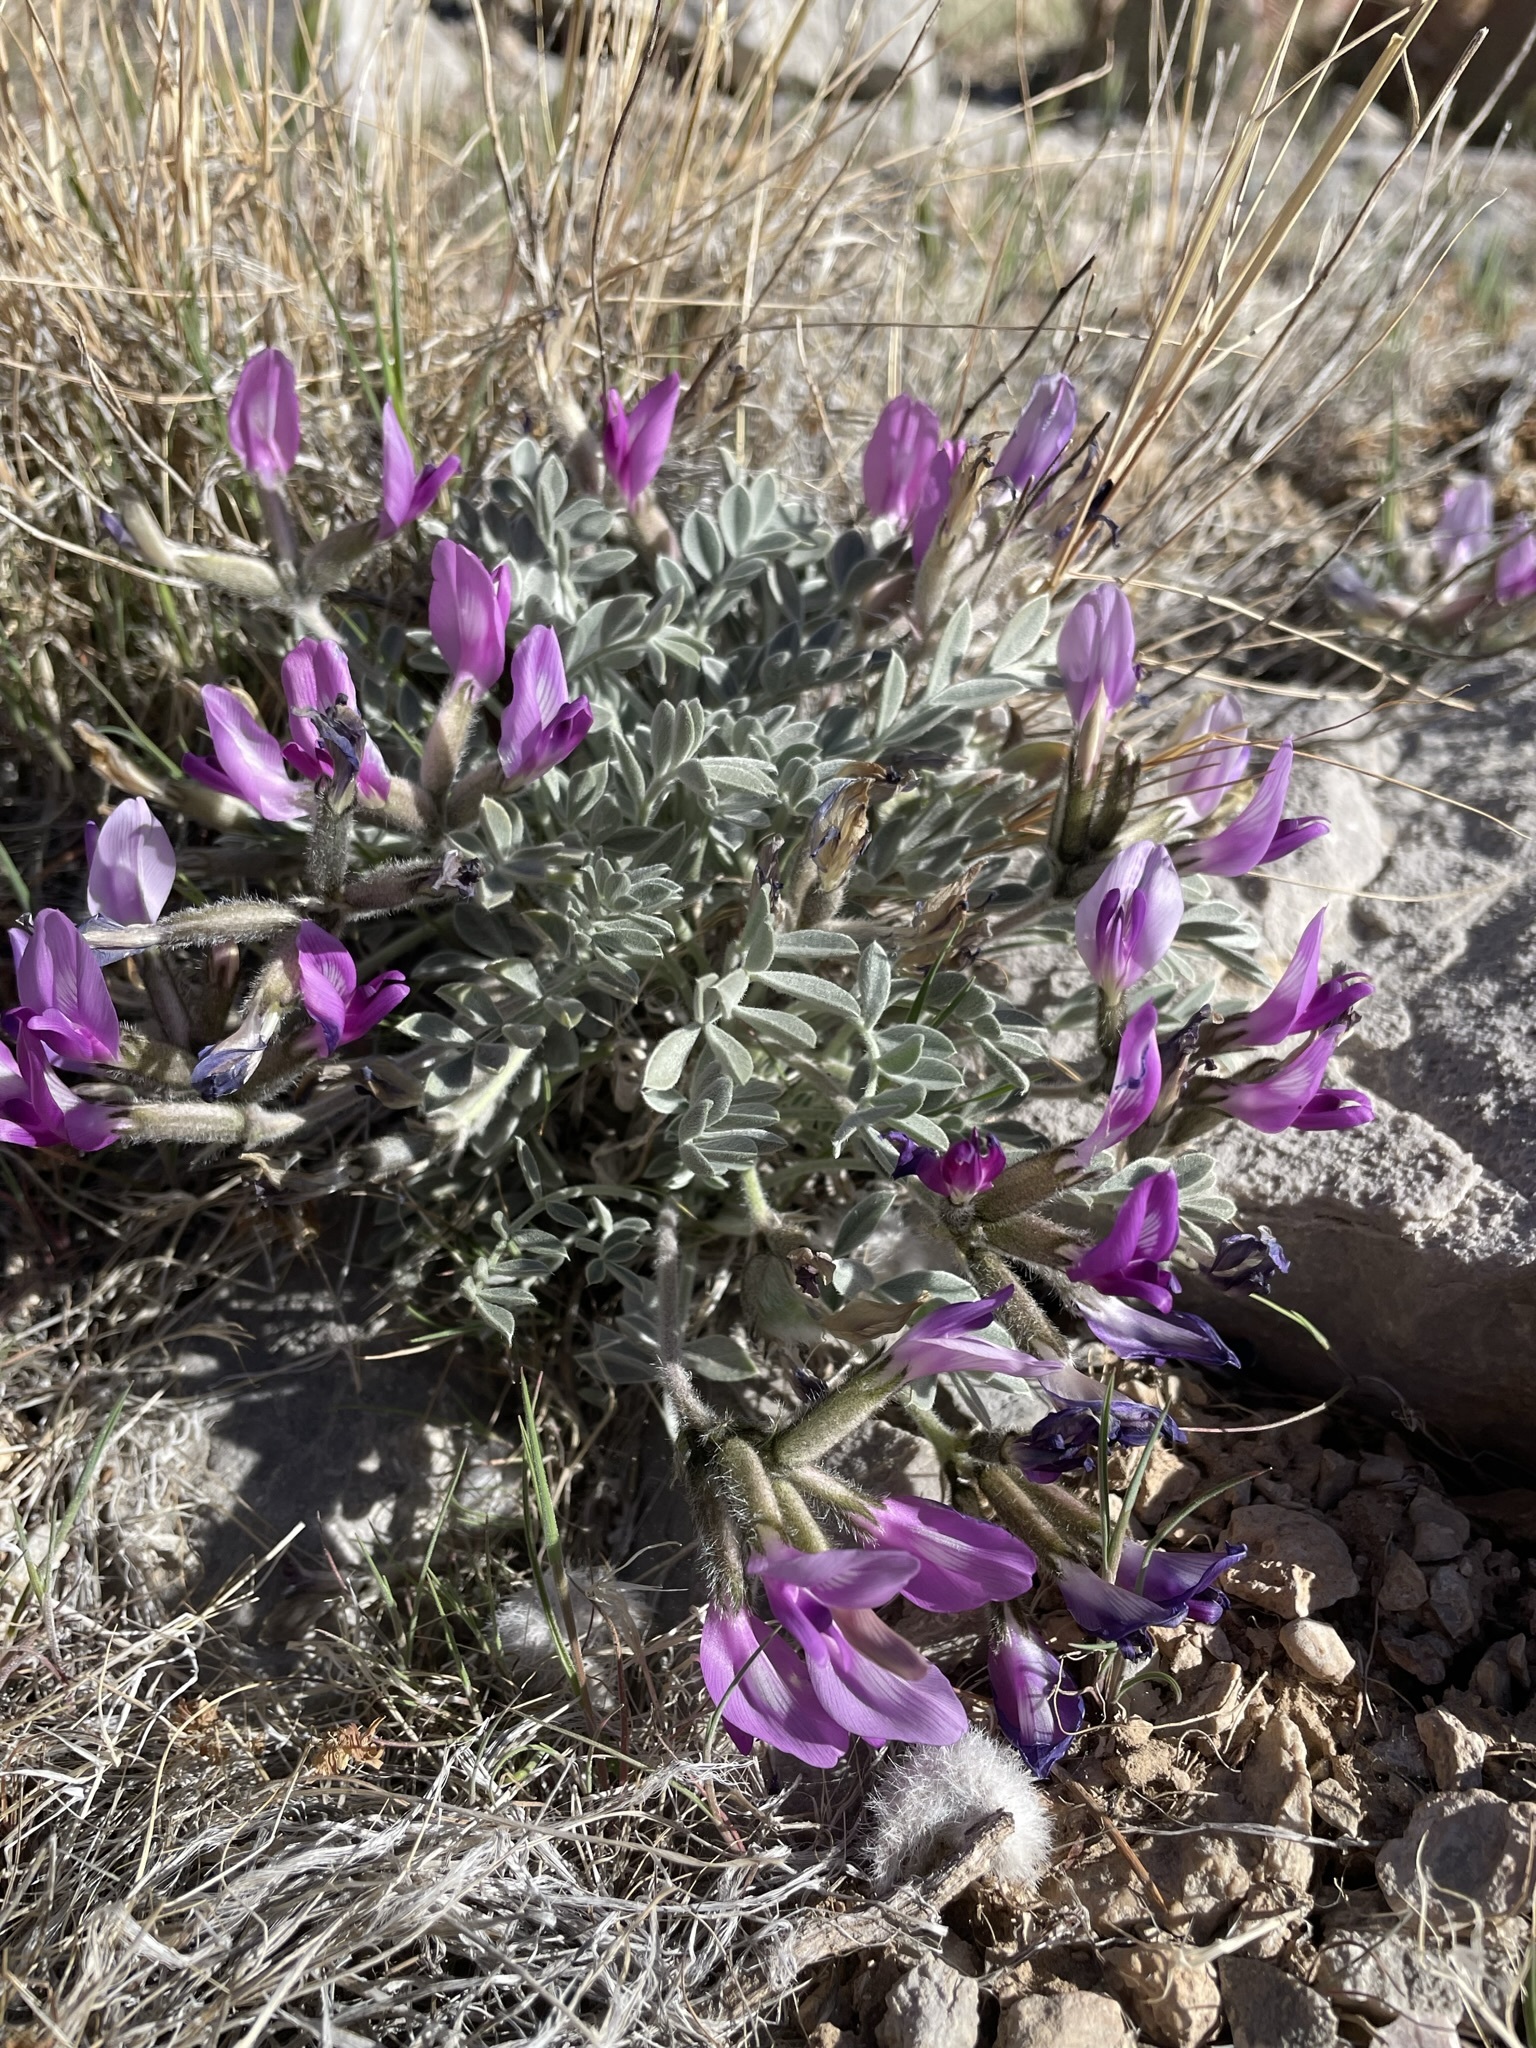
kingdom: Plantae
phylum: Tracheophyta
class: Magnoliopsida
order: Fabales
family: Fabaceae
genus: Astragalus
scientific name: Astragalus newberryi
